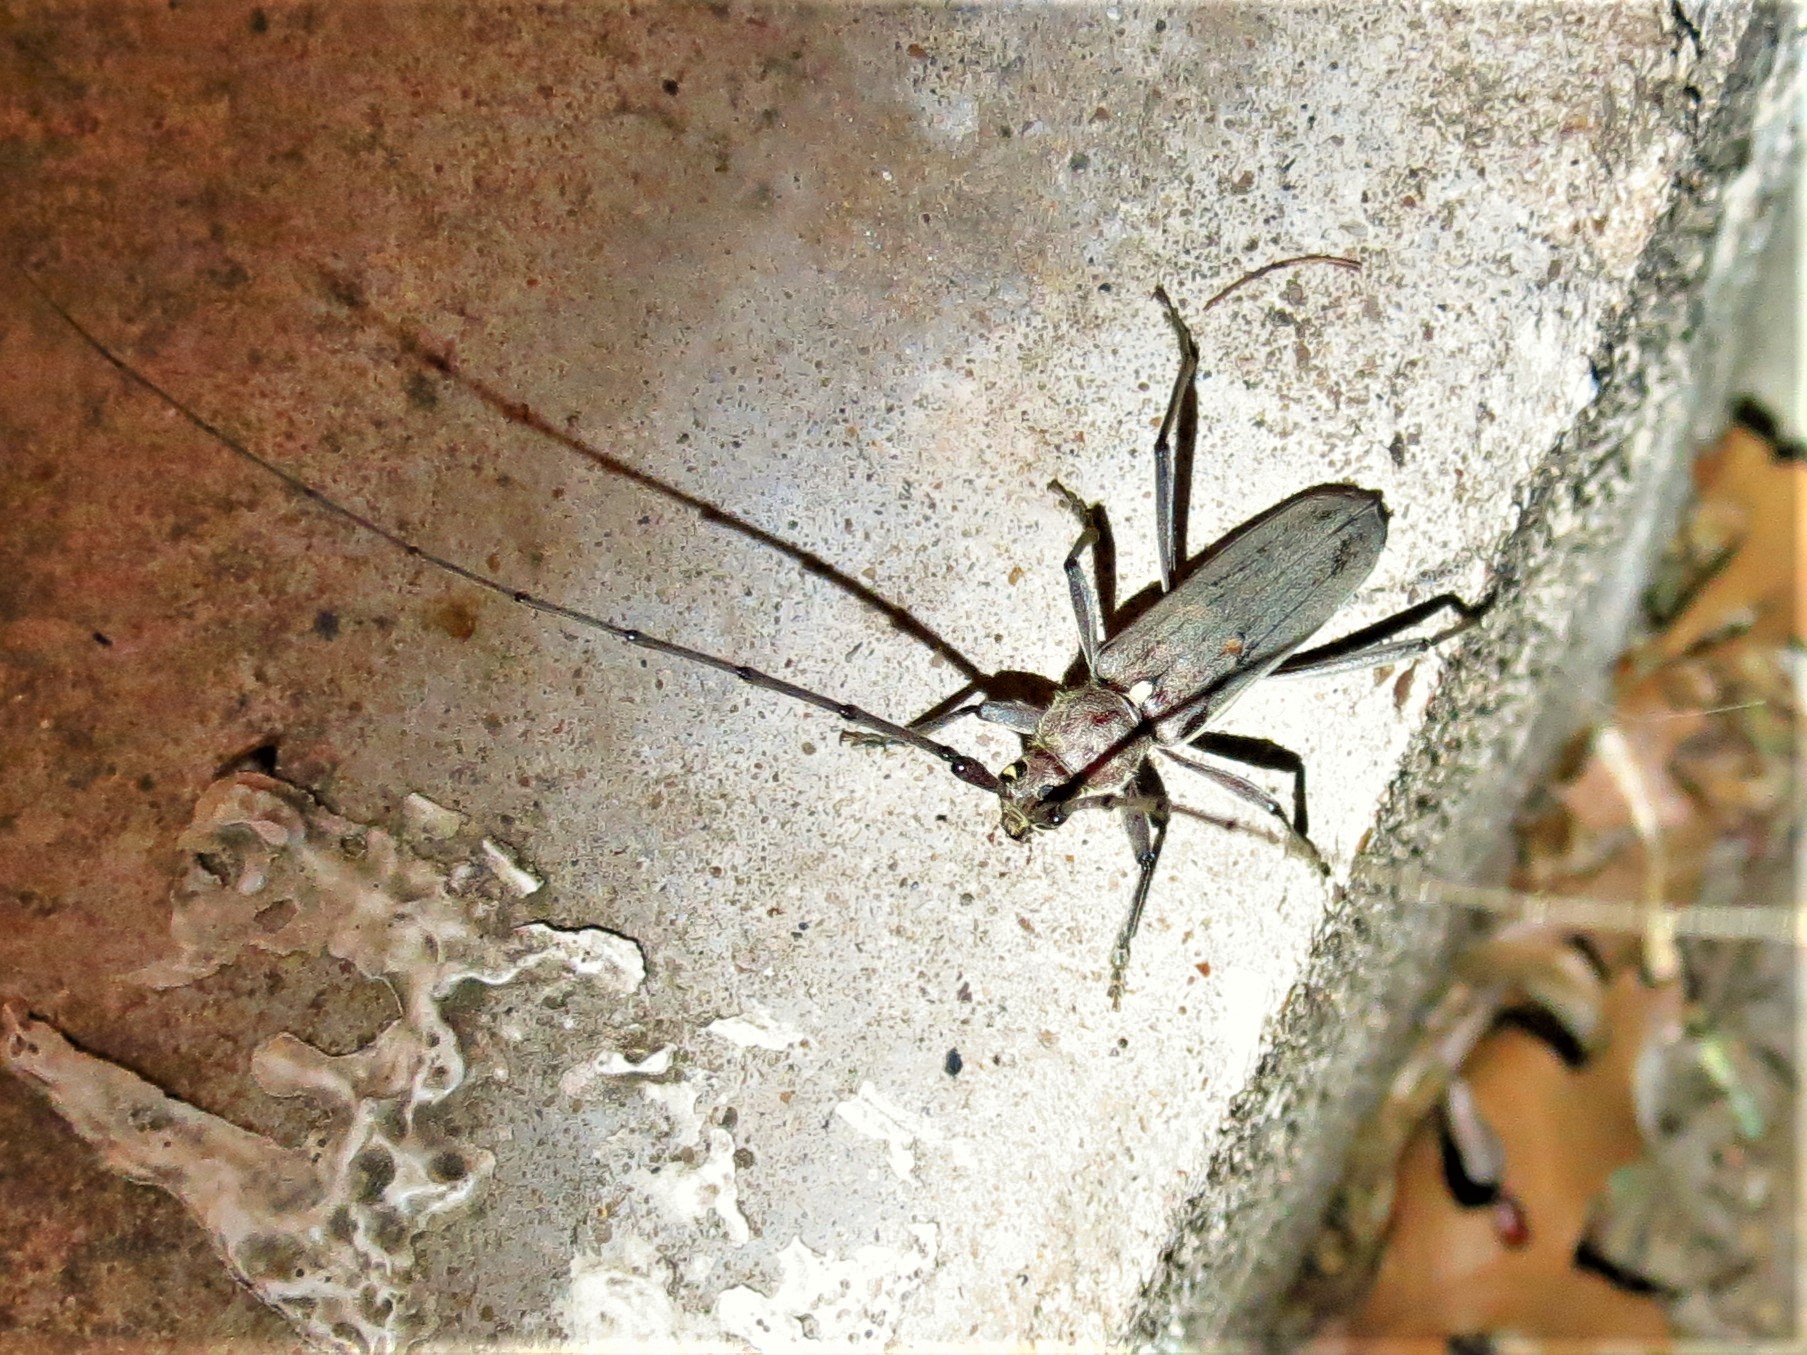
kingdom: Animalia
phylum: Arthropoda
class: Insecta
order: Coleoptera
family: Cerambycidae
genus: Knulliana
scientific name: Knulliana cincta
